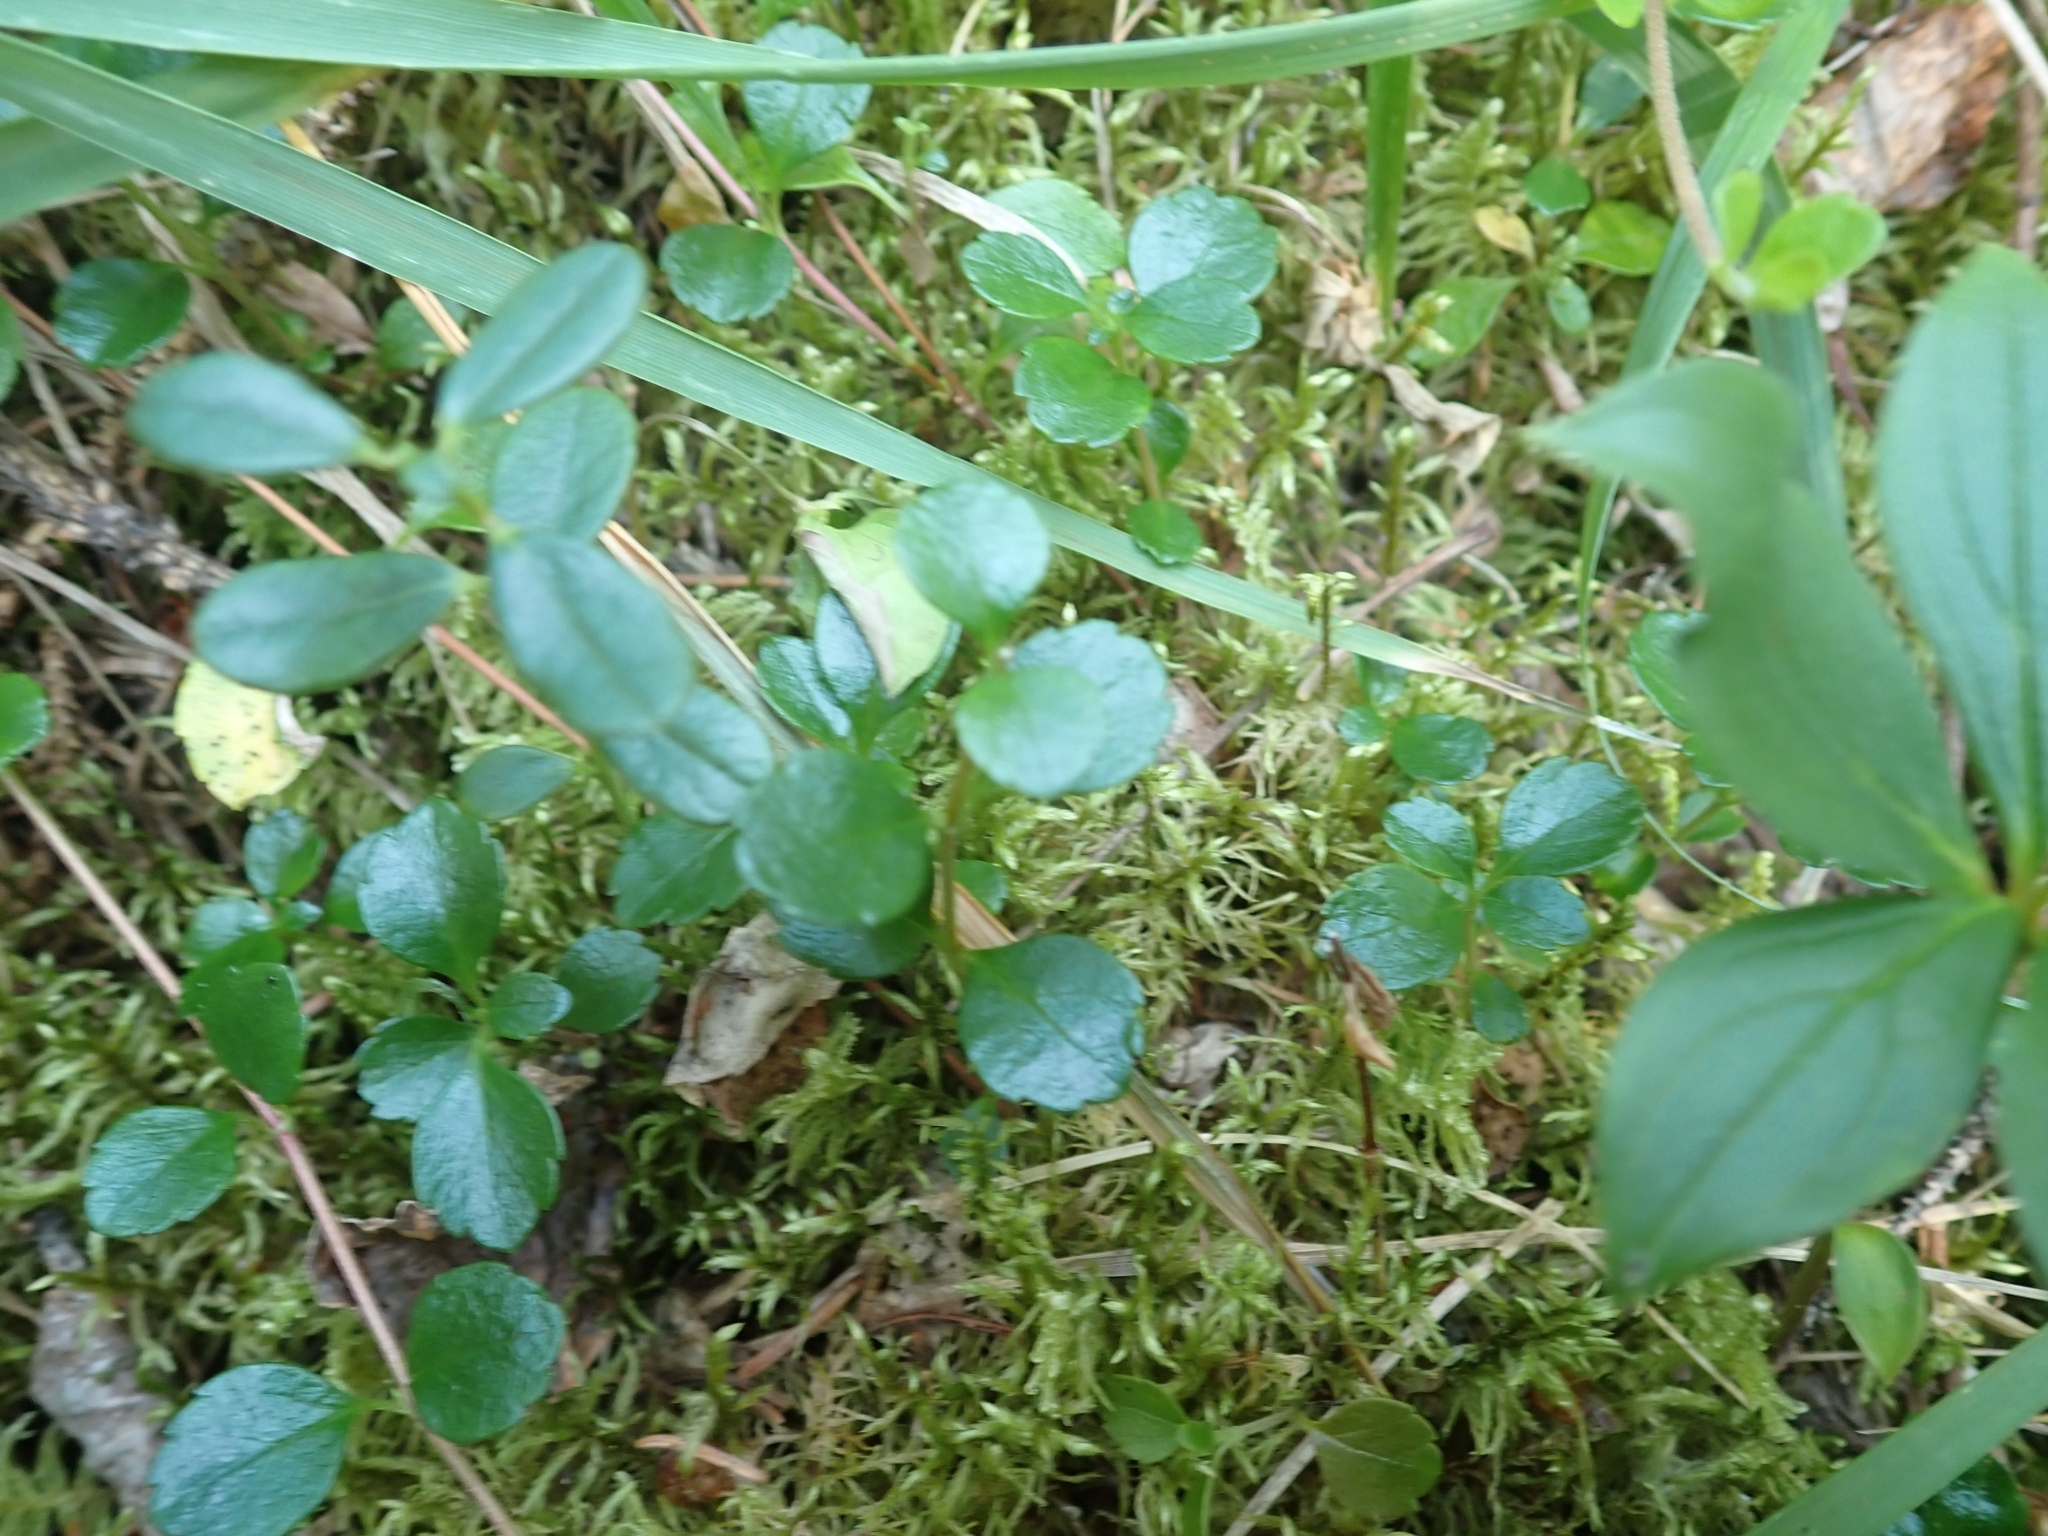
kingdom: Plantae
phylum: Tracheophyta
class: Magnoliopsida
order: Dipsacales
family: Caprifoliaceae
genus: Linnaea
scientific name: Linnaea borealis
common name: Twinflower
